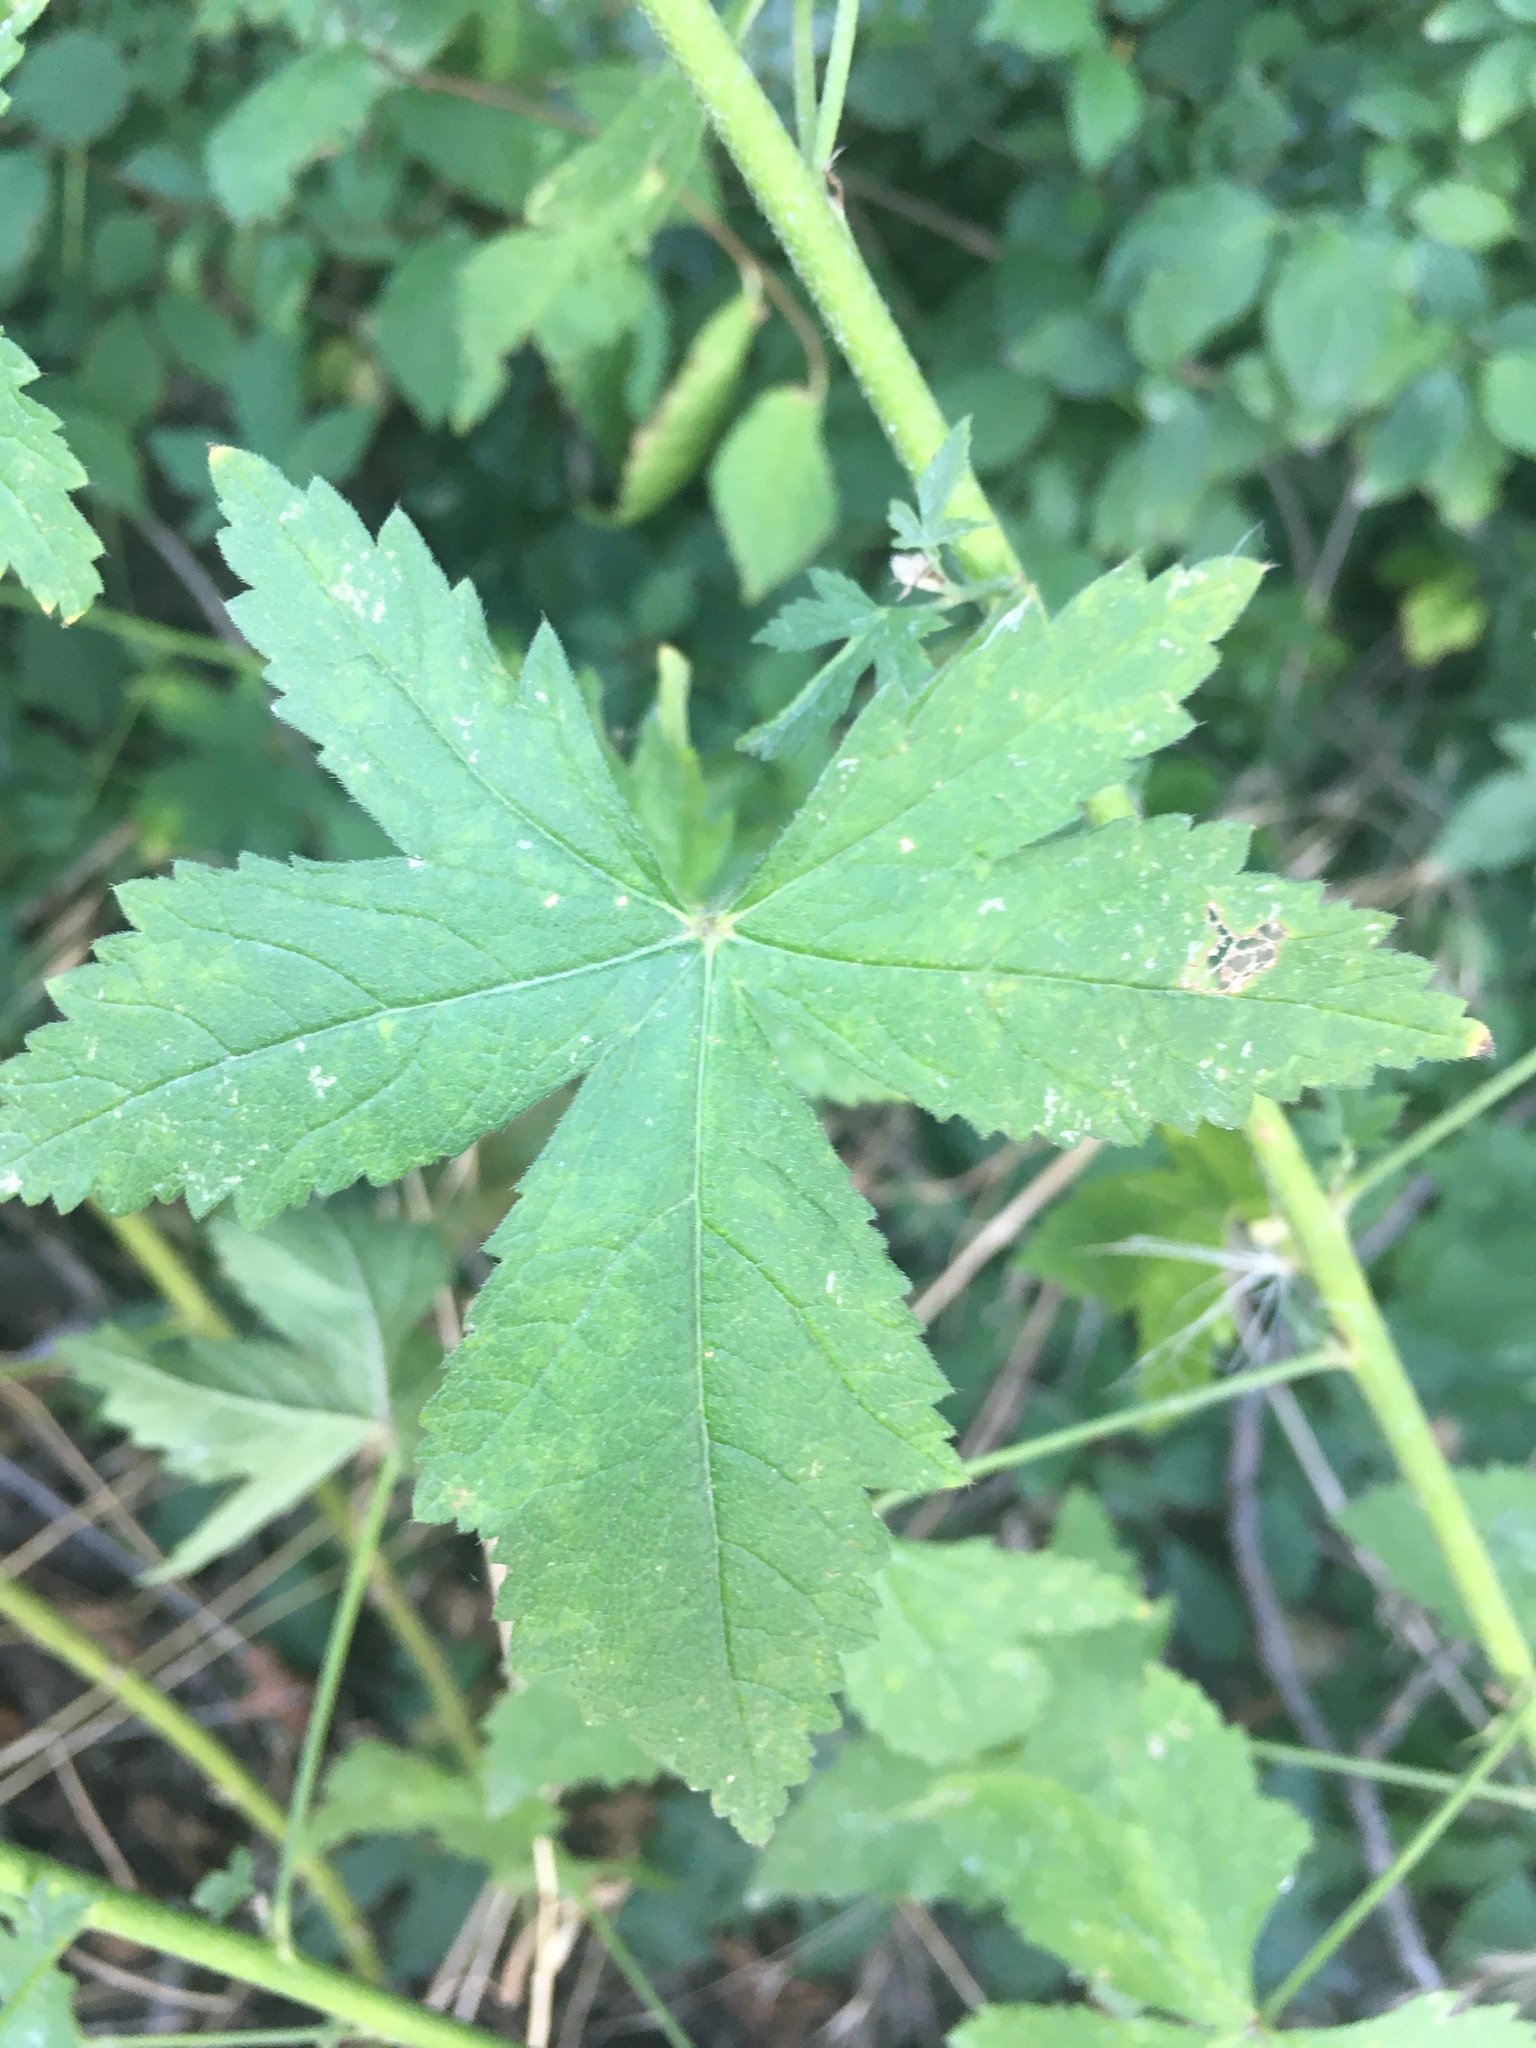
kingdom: Plantae
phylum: Tracheophyta
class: Magnoliopsida
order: Malvales
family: Malvaceae
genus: Althaea
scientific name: Althaea cannabina
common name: Palm-leaf marshmallow
